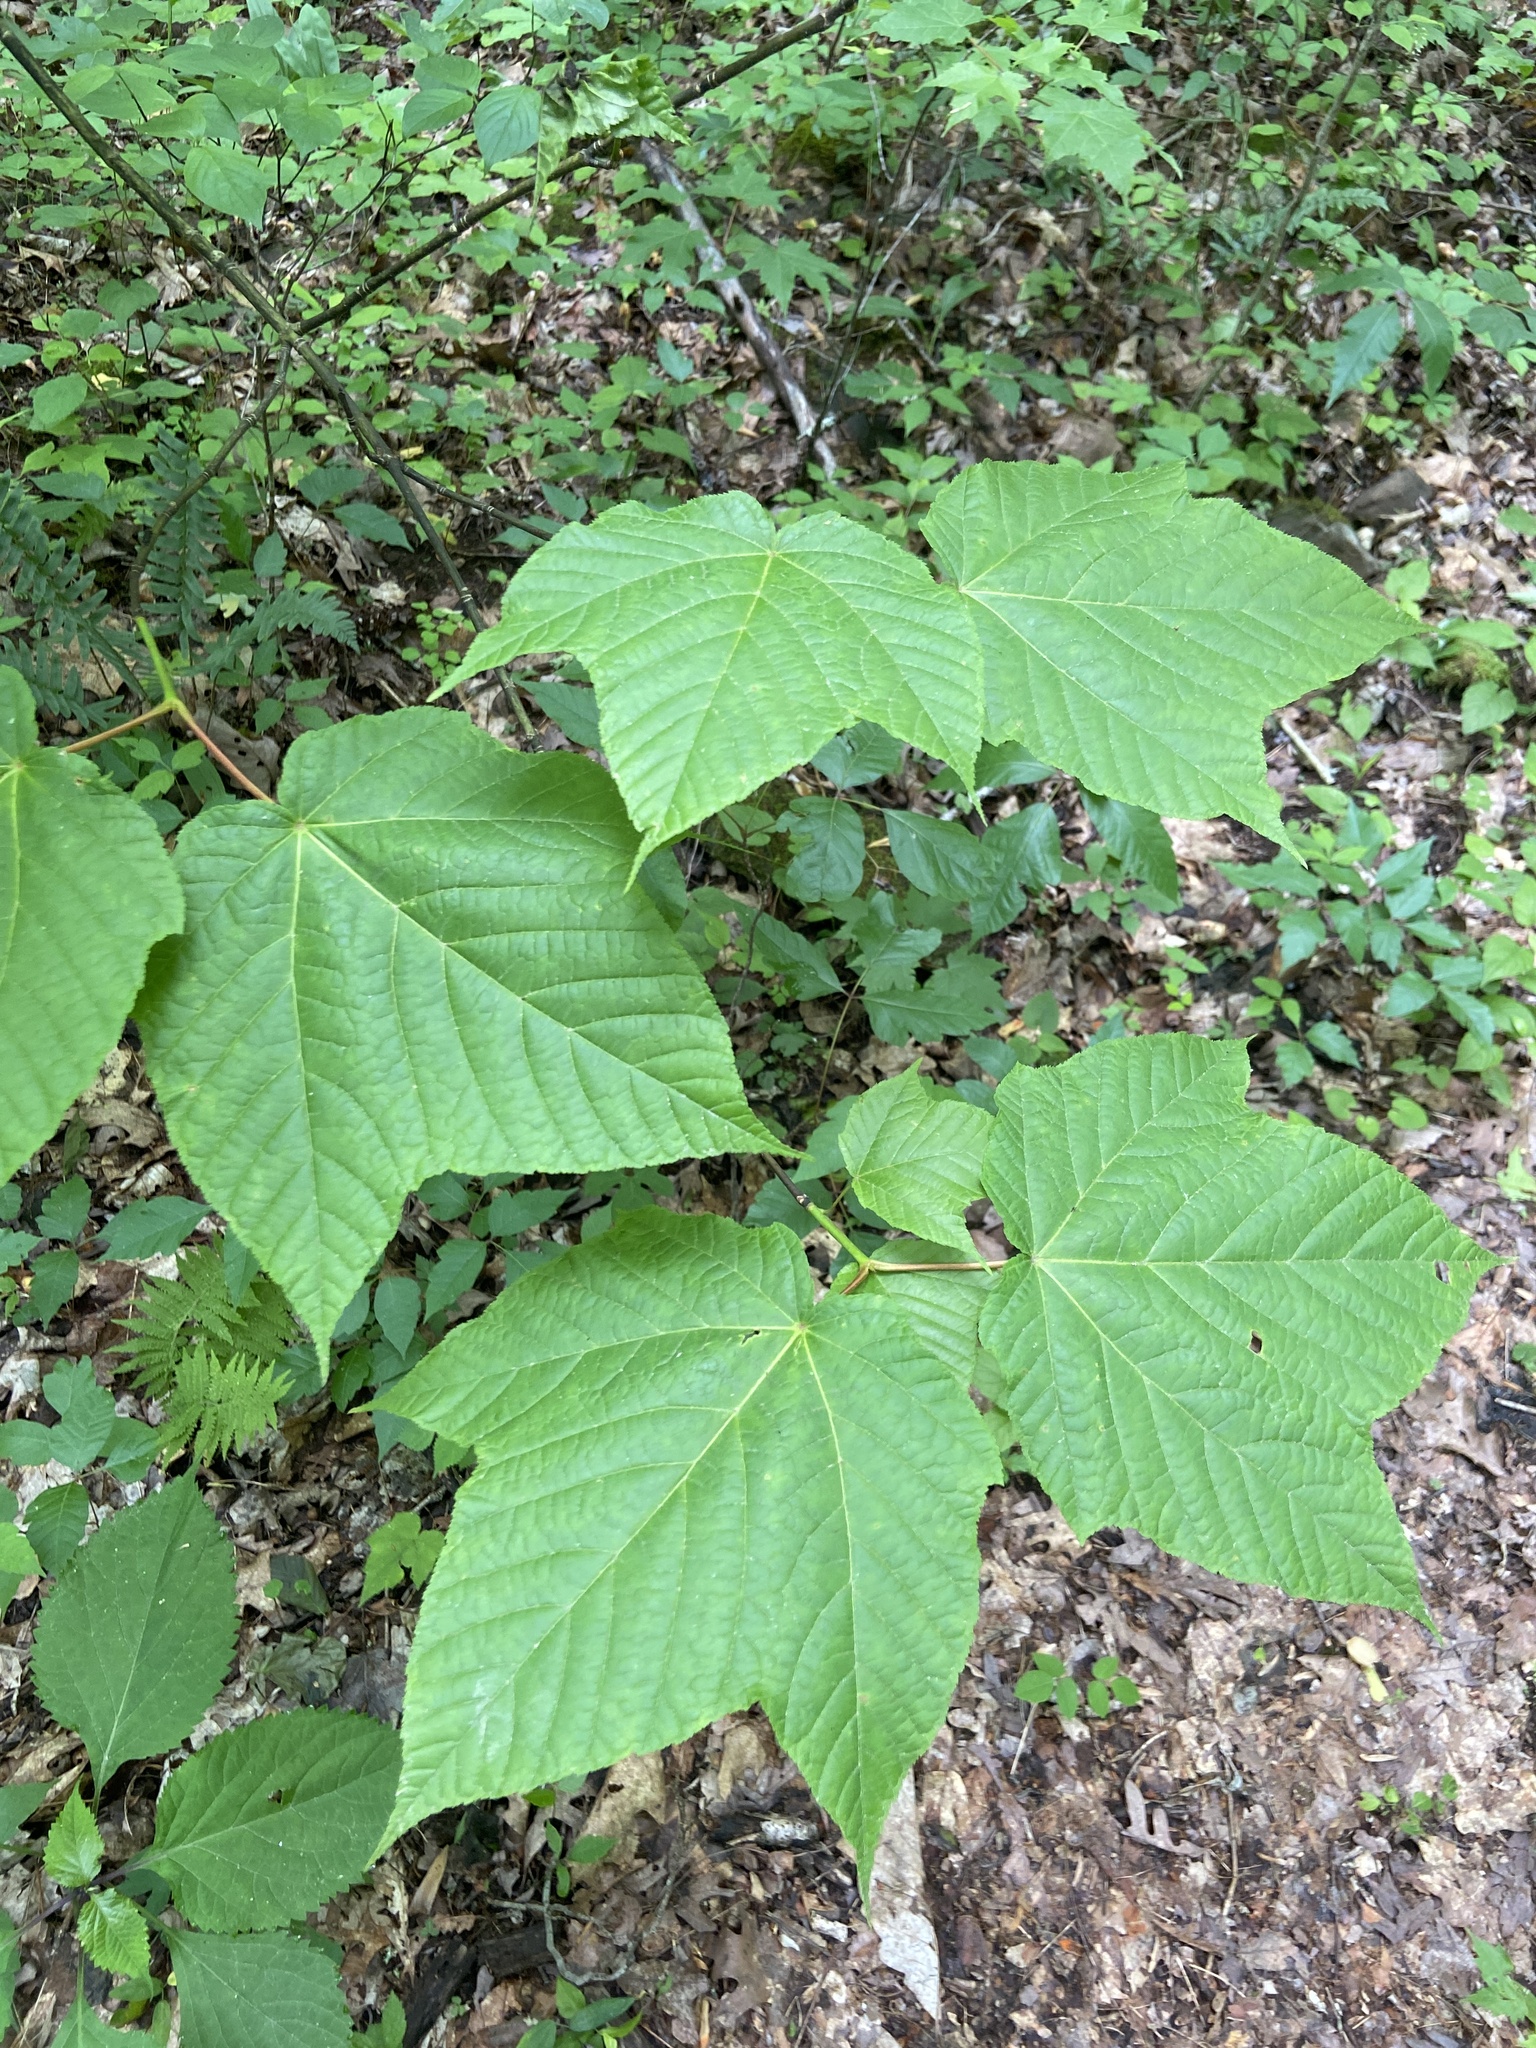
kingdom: Plantae
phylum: Tracheophyta
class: Magnoliopsida
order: Sapindales
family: Sapindaceae
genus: Acer
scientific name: Acer pensylvanicum
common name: Moosewood
